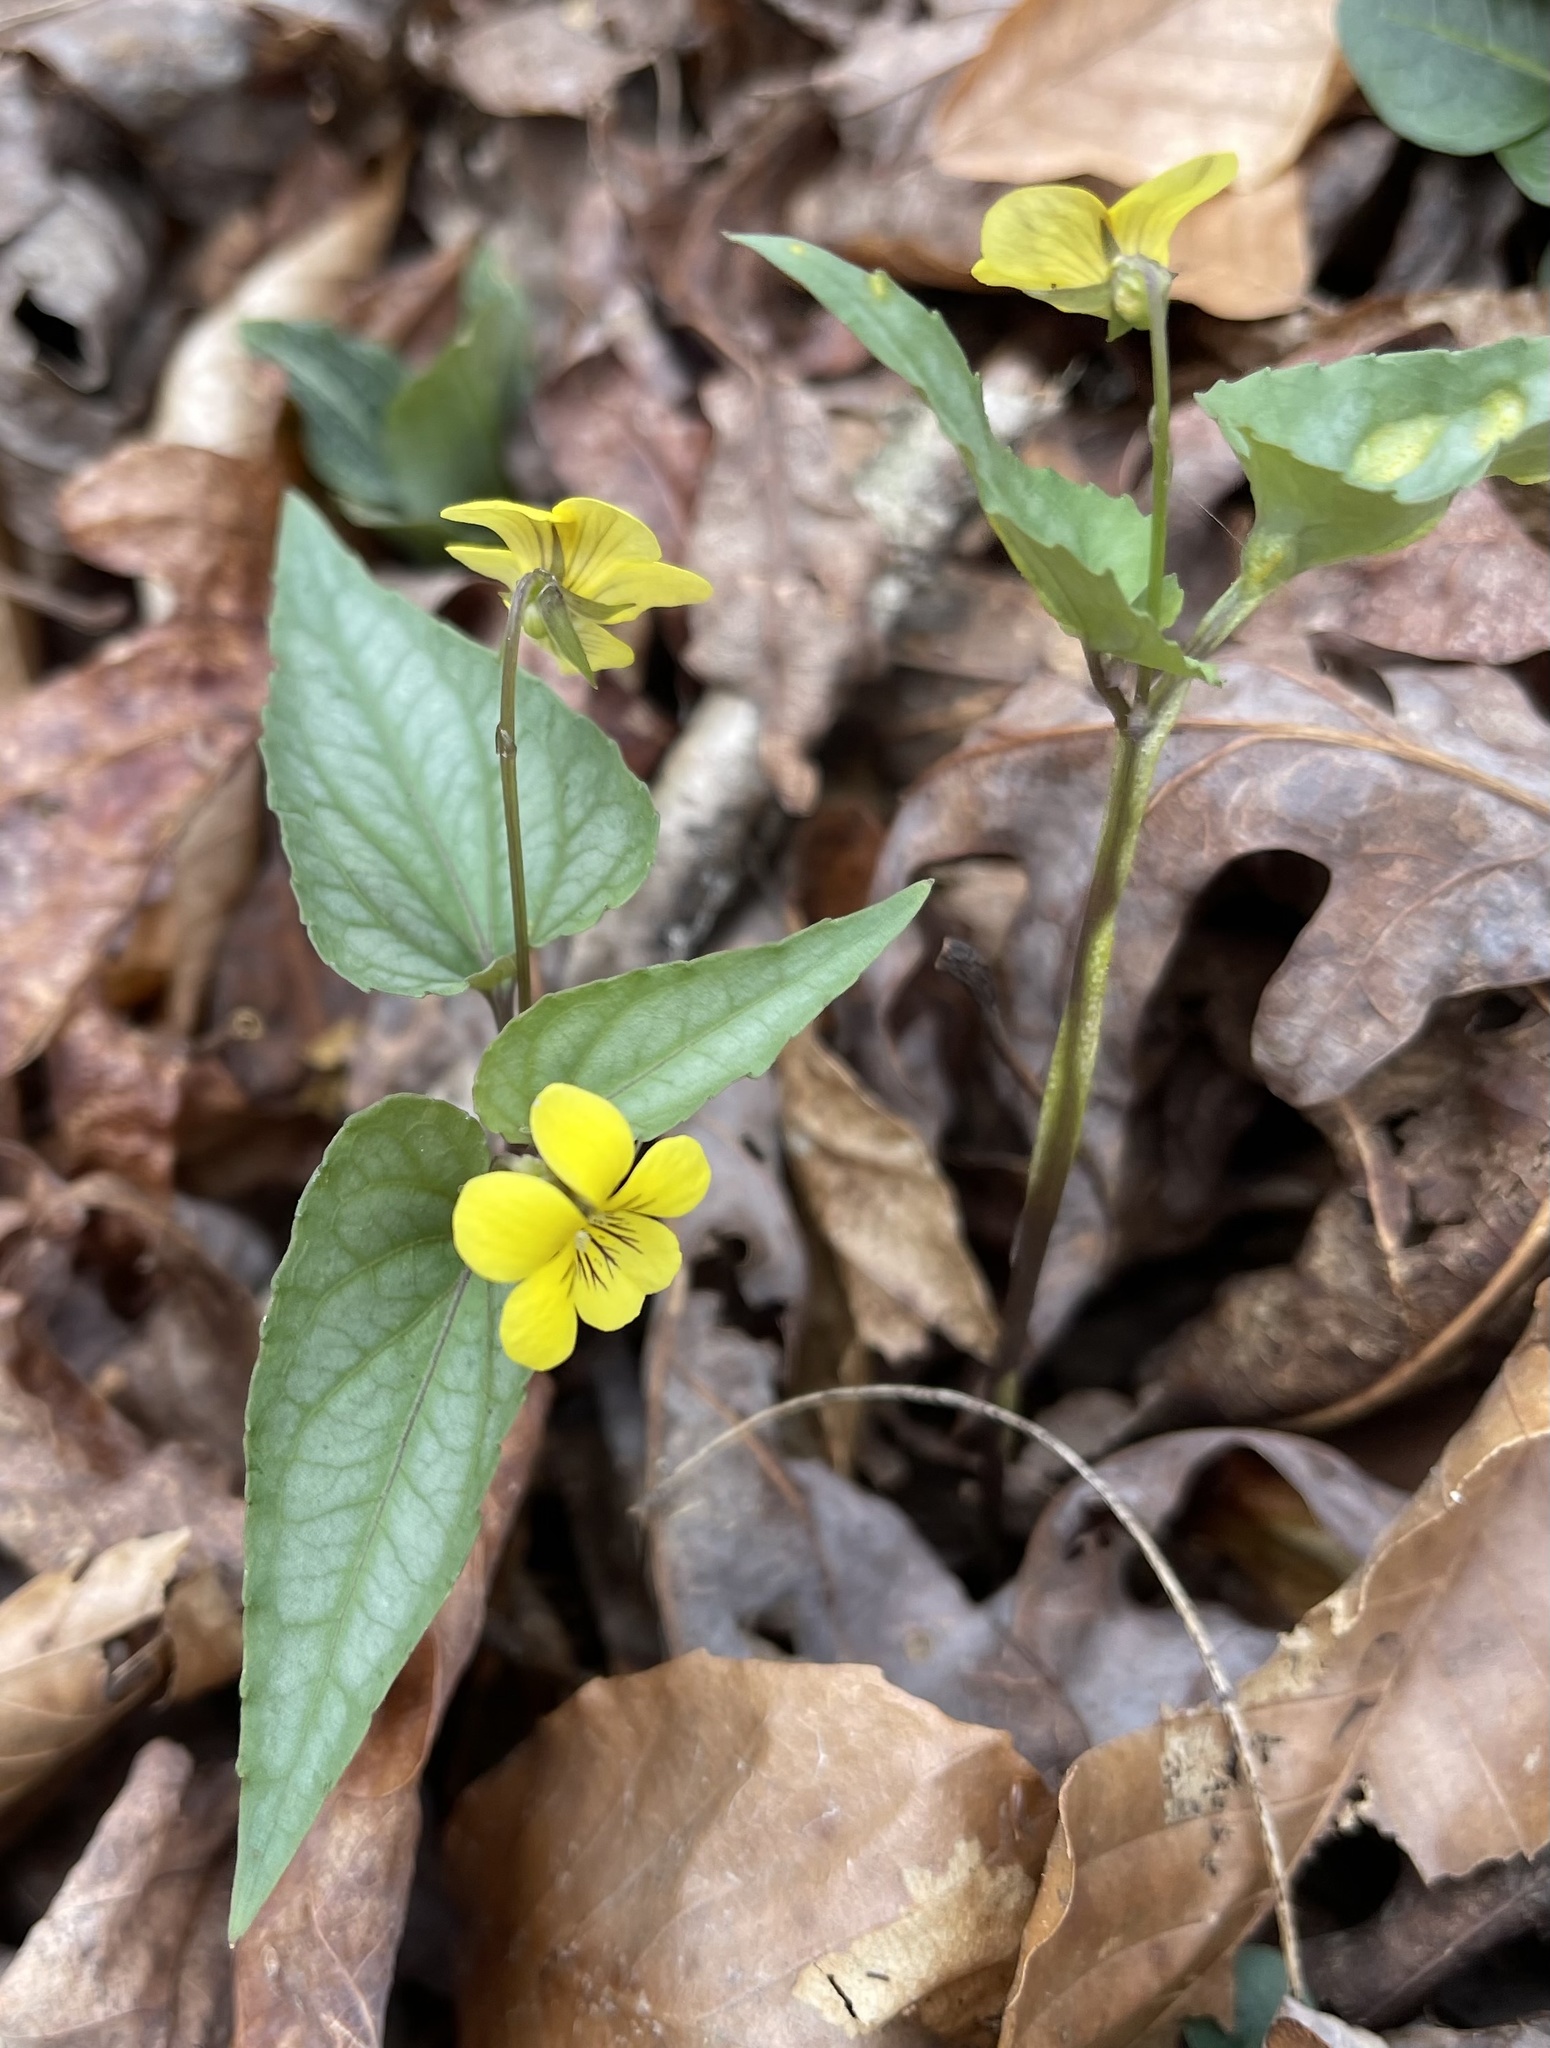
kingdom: Plantae
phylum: Tracheophyta
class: Magnoliopsida
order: Malpighiales
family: Violaceae
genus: Viola
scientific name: Viola hastata
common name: Spear-leaf violet
